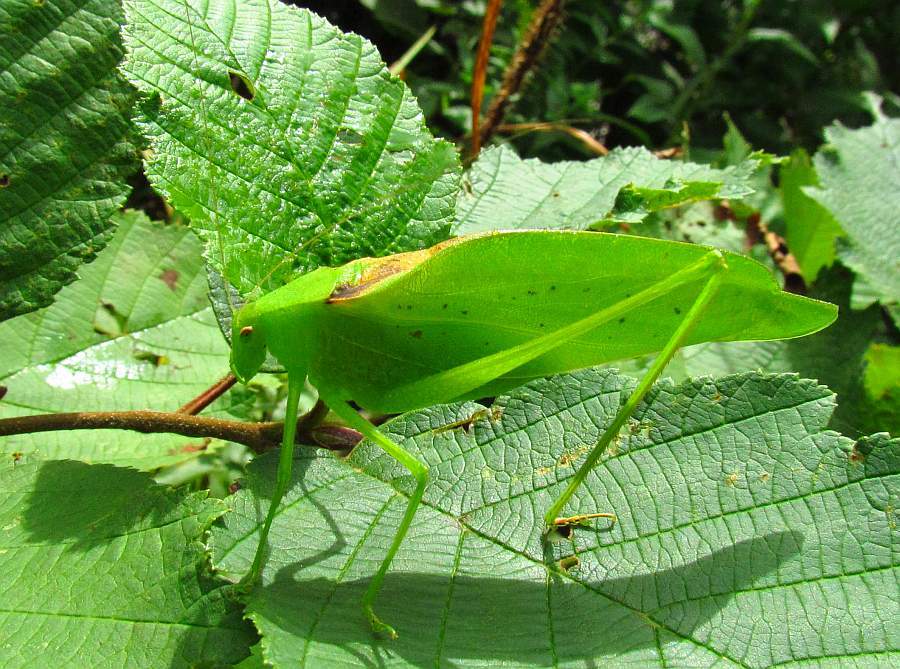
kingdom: Animalia
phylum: Arthropoda
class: Insecta
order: Orthoptera
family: Tettigoniidae
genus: Amblycorypha
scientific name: Amblycorypha oblongifolia
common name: Oblong-winged katydid
